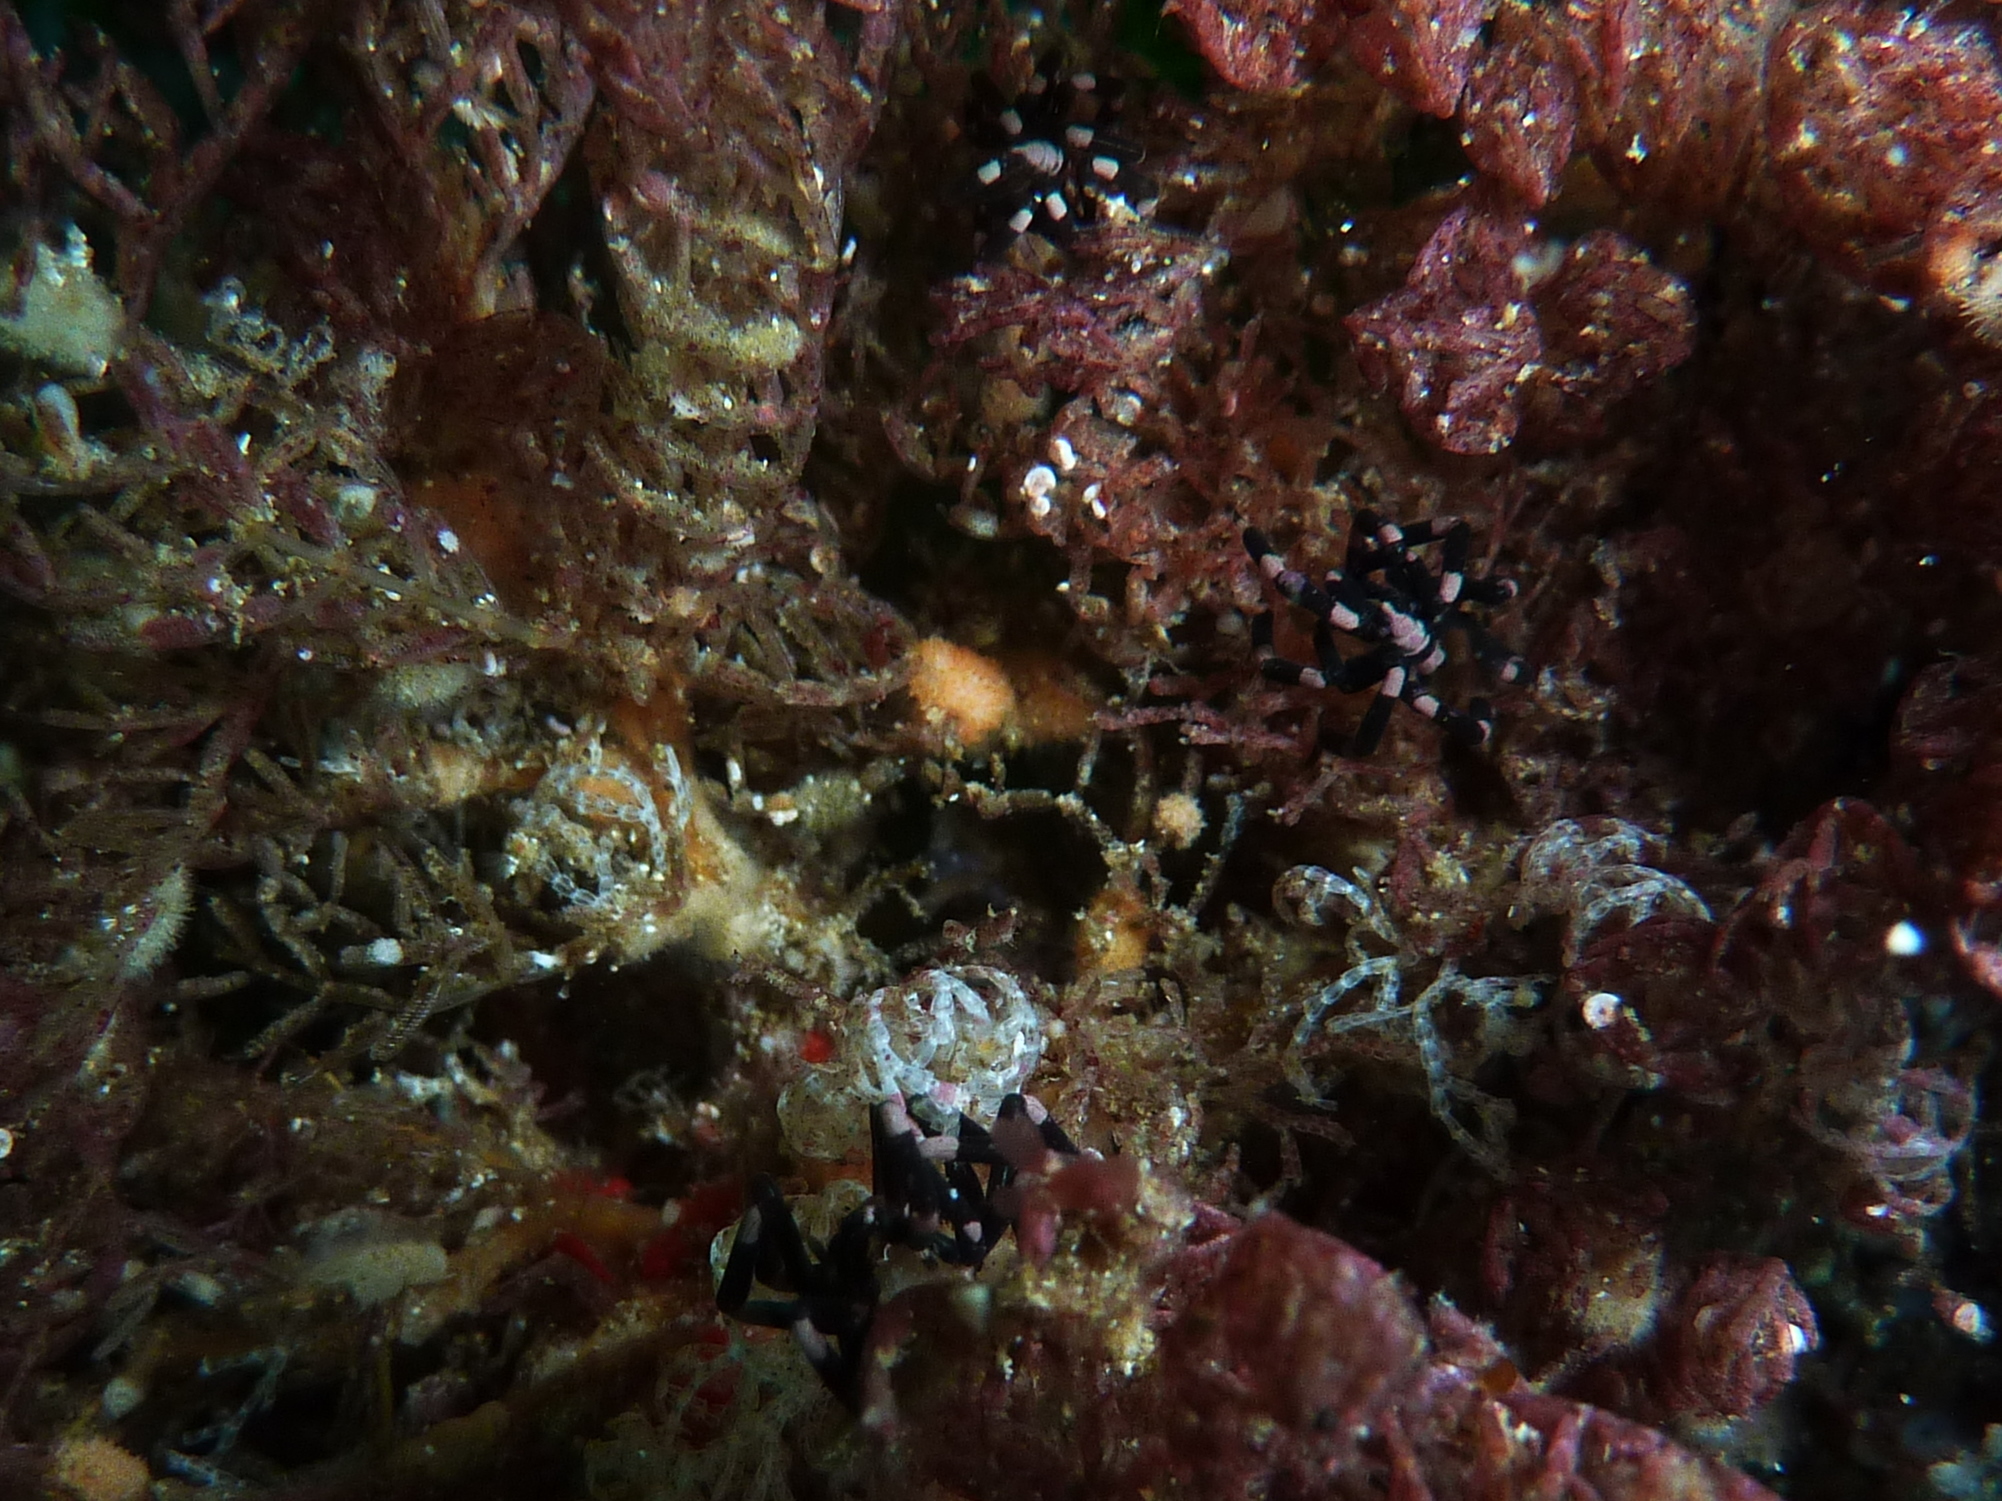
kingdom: Animalia
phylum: Arthropoda
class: Pycnogonida
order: Pantopoda
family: Callipallenidae
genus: Stylopallene
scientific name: Stylopallene tubirostris
